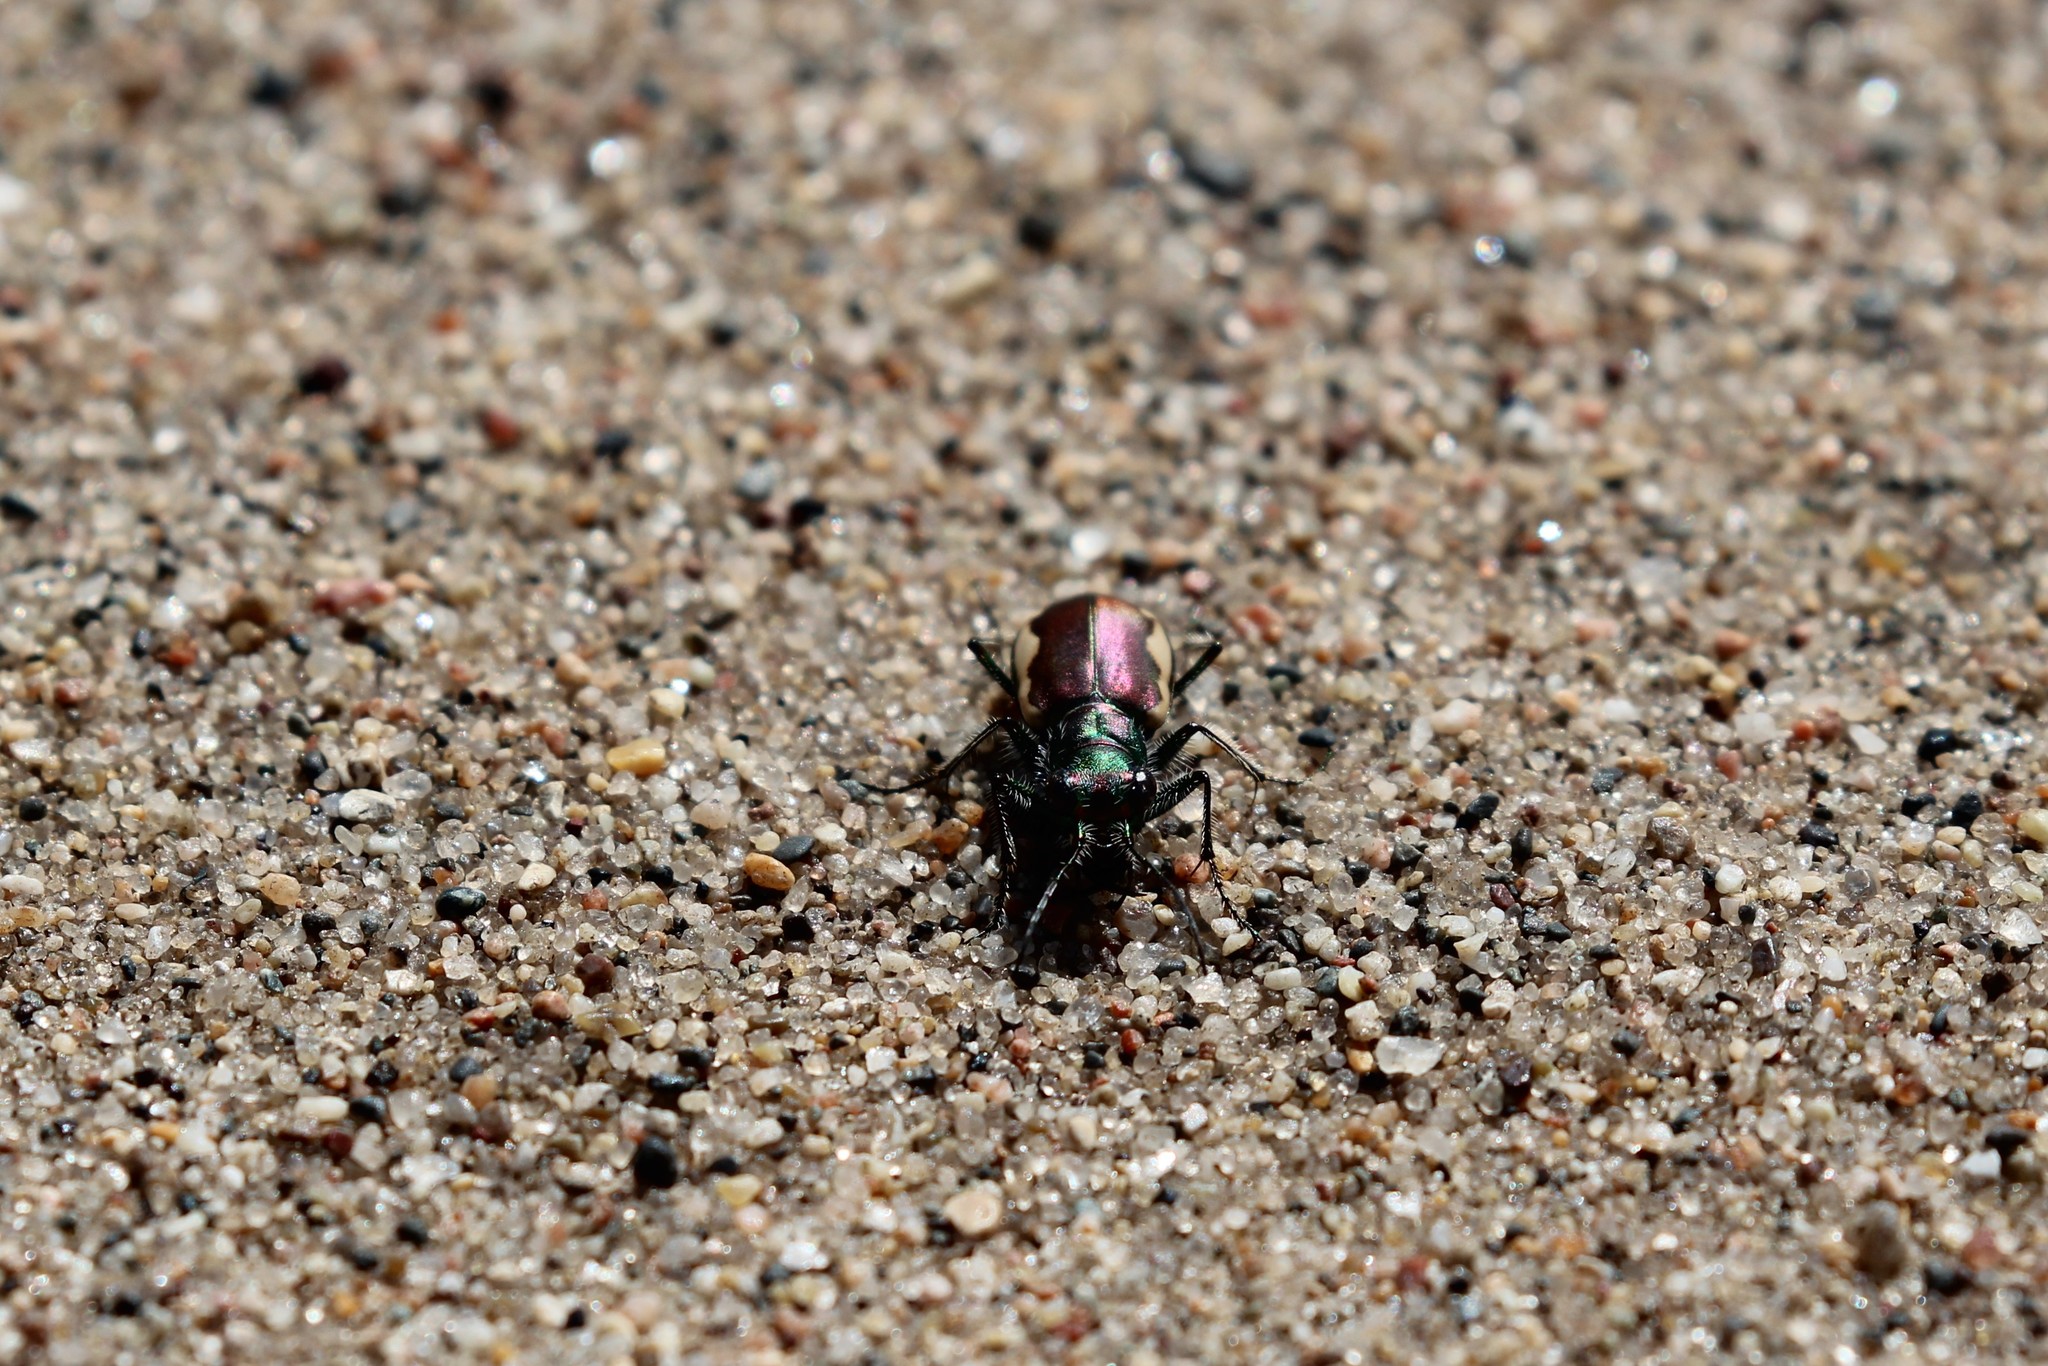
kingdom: Animalia
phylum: Arthropoda
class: Insecta
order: Coleoptera
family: Carabidae
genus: Cicindela
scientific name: Cicindela scutellaris
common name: Festive tiger beetle
